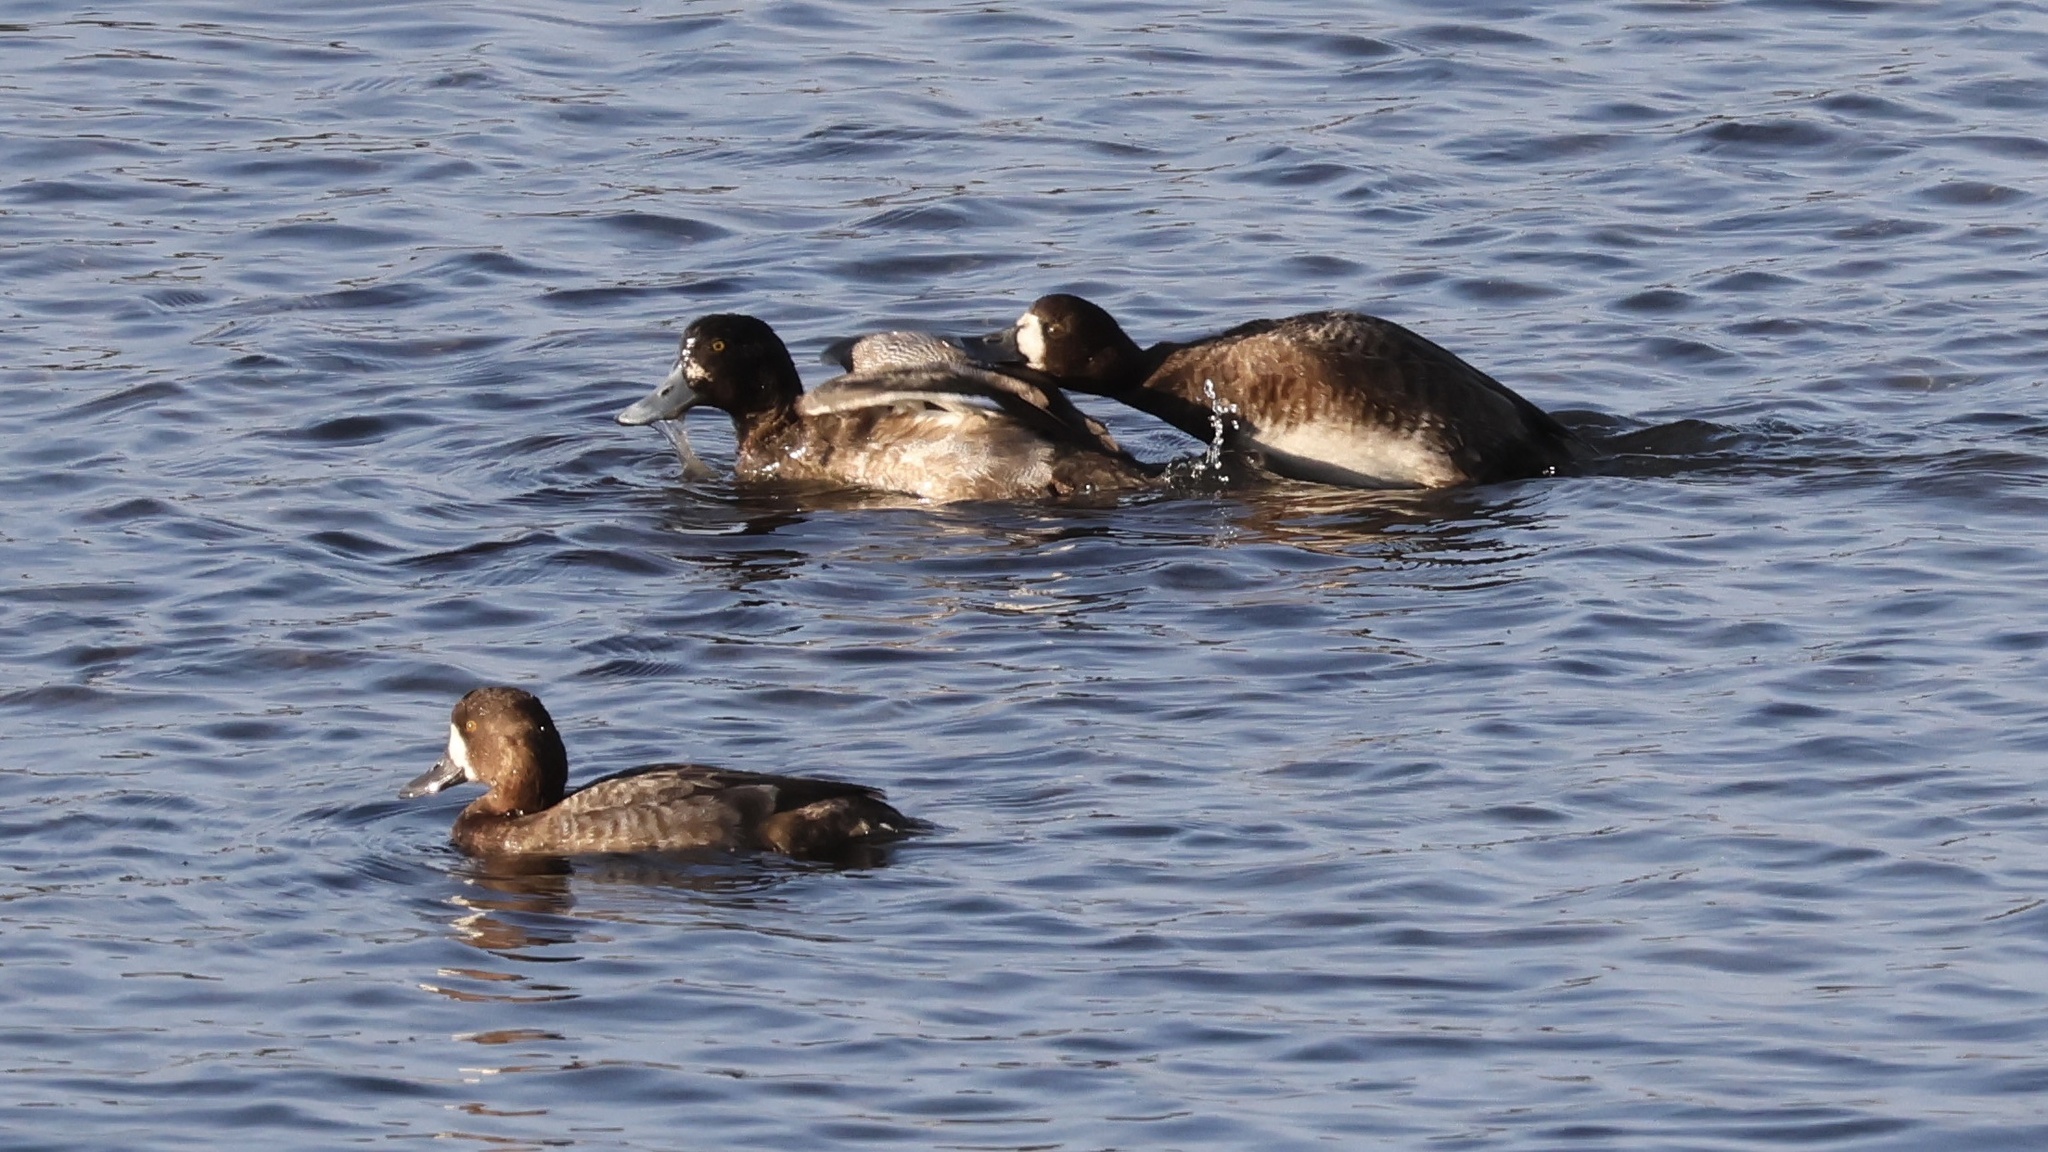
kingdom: Animalia
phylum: Chordata
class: Aves
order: Anseriformes
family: Anatidae
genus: Aythya
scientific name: Aythya affinis
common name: Lesser scaup
